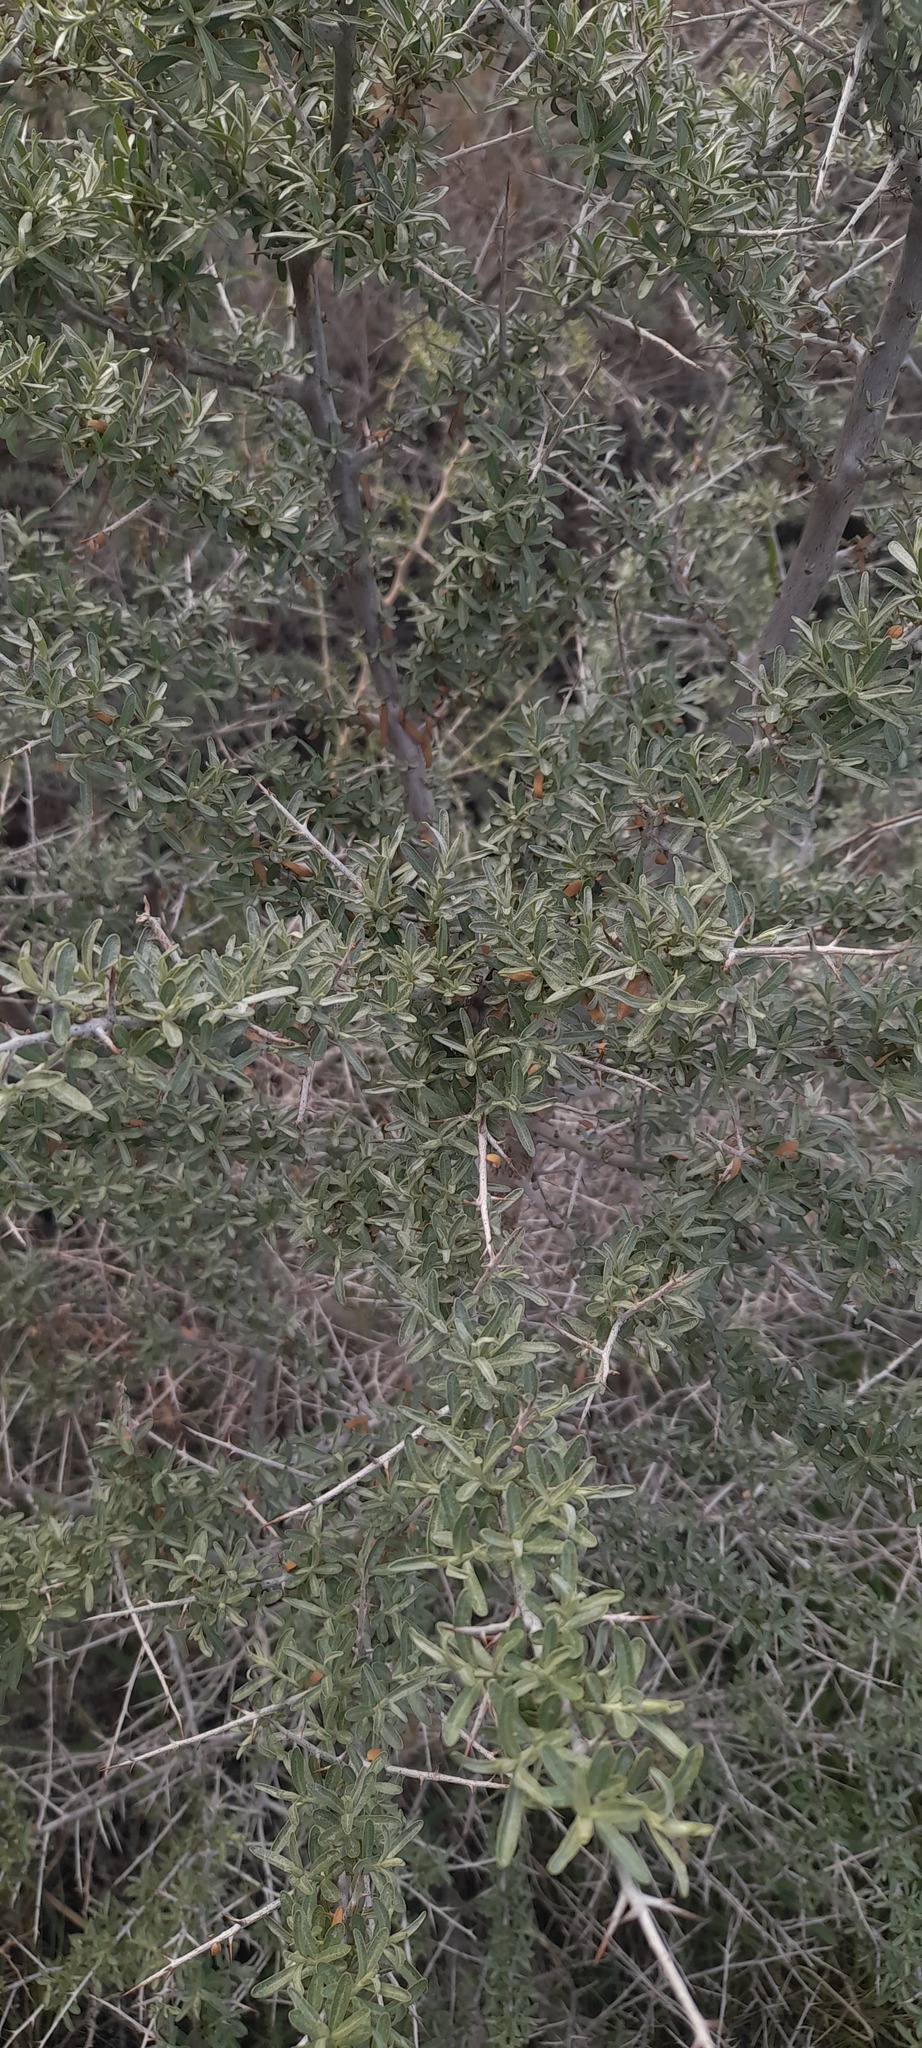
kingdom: Plantae
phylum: Tracheophyta
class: Magnoliopsida
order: Rosales
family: Elaeagnaceae
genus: Hippophae
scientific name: Hippophae rhamnoides
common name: Sea-buckthorn
